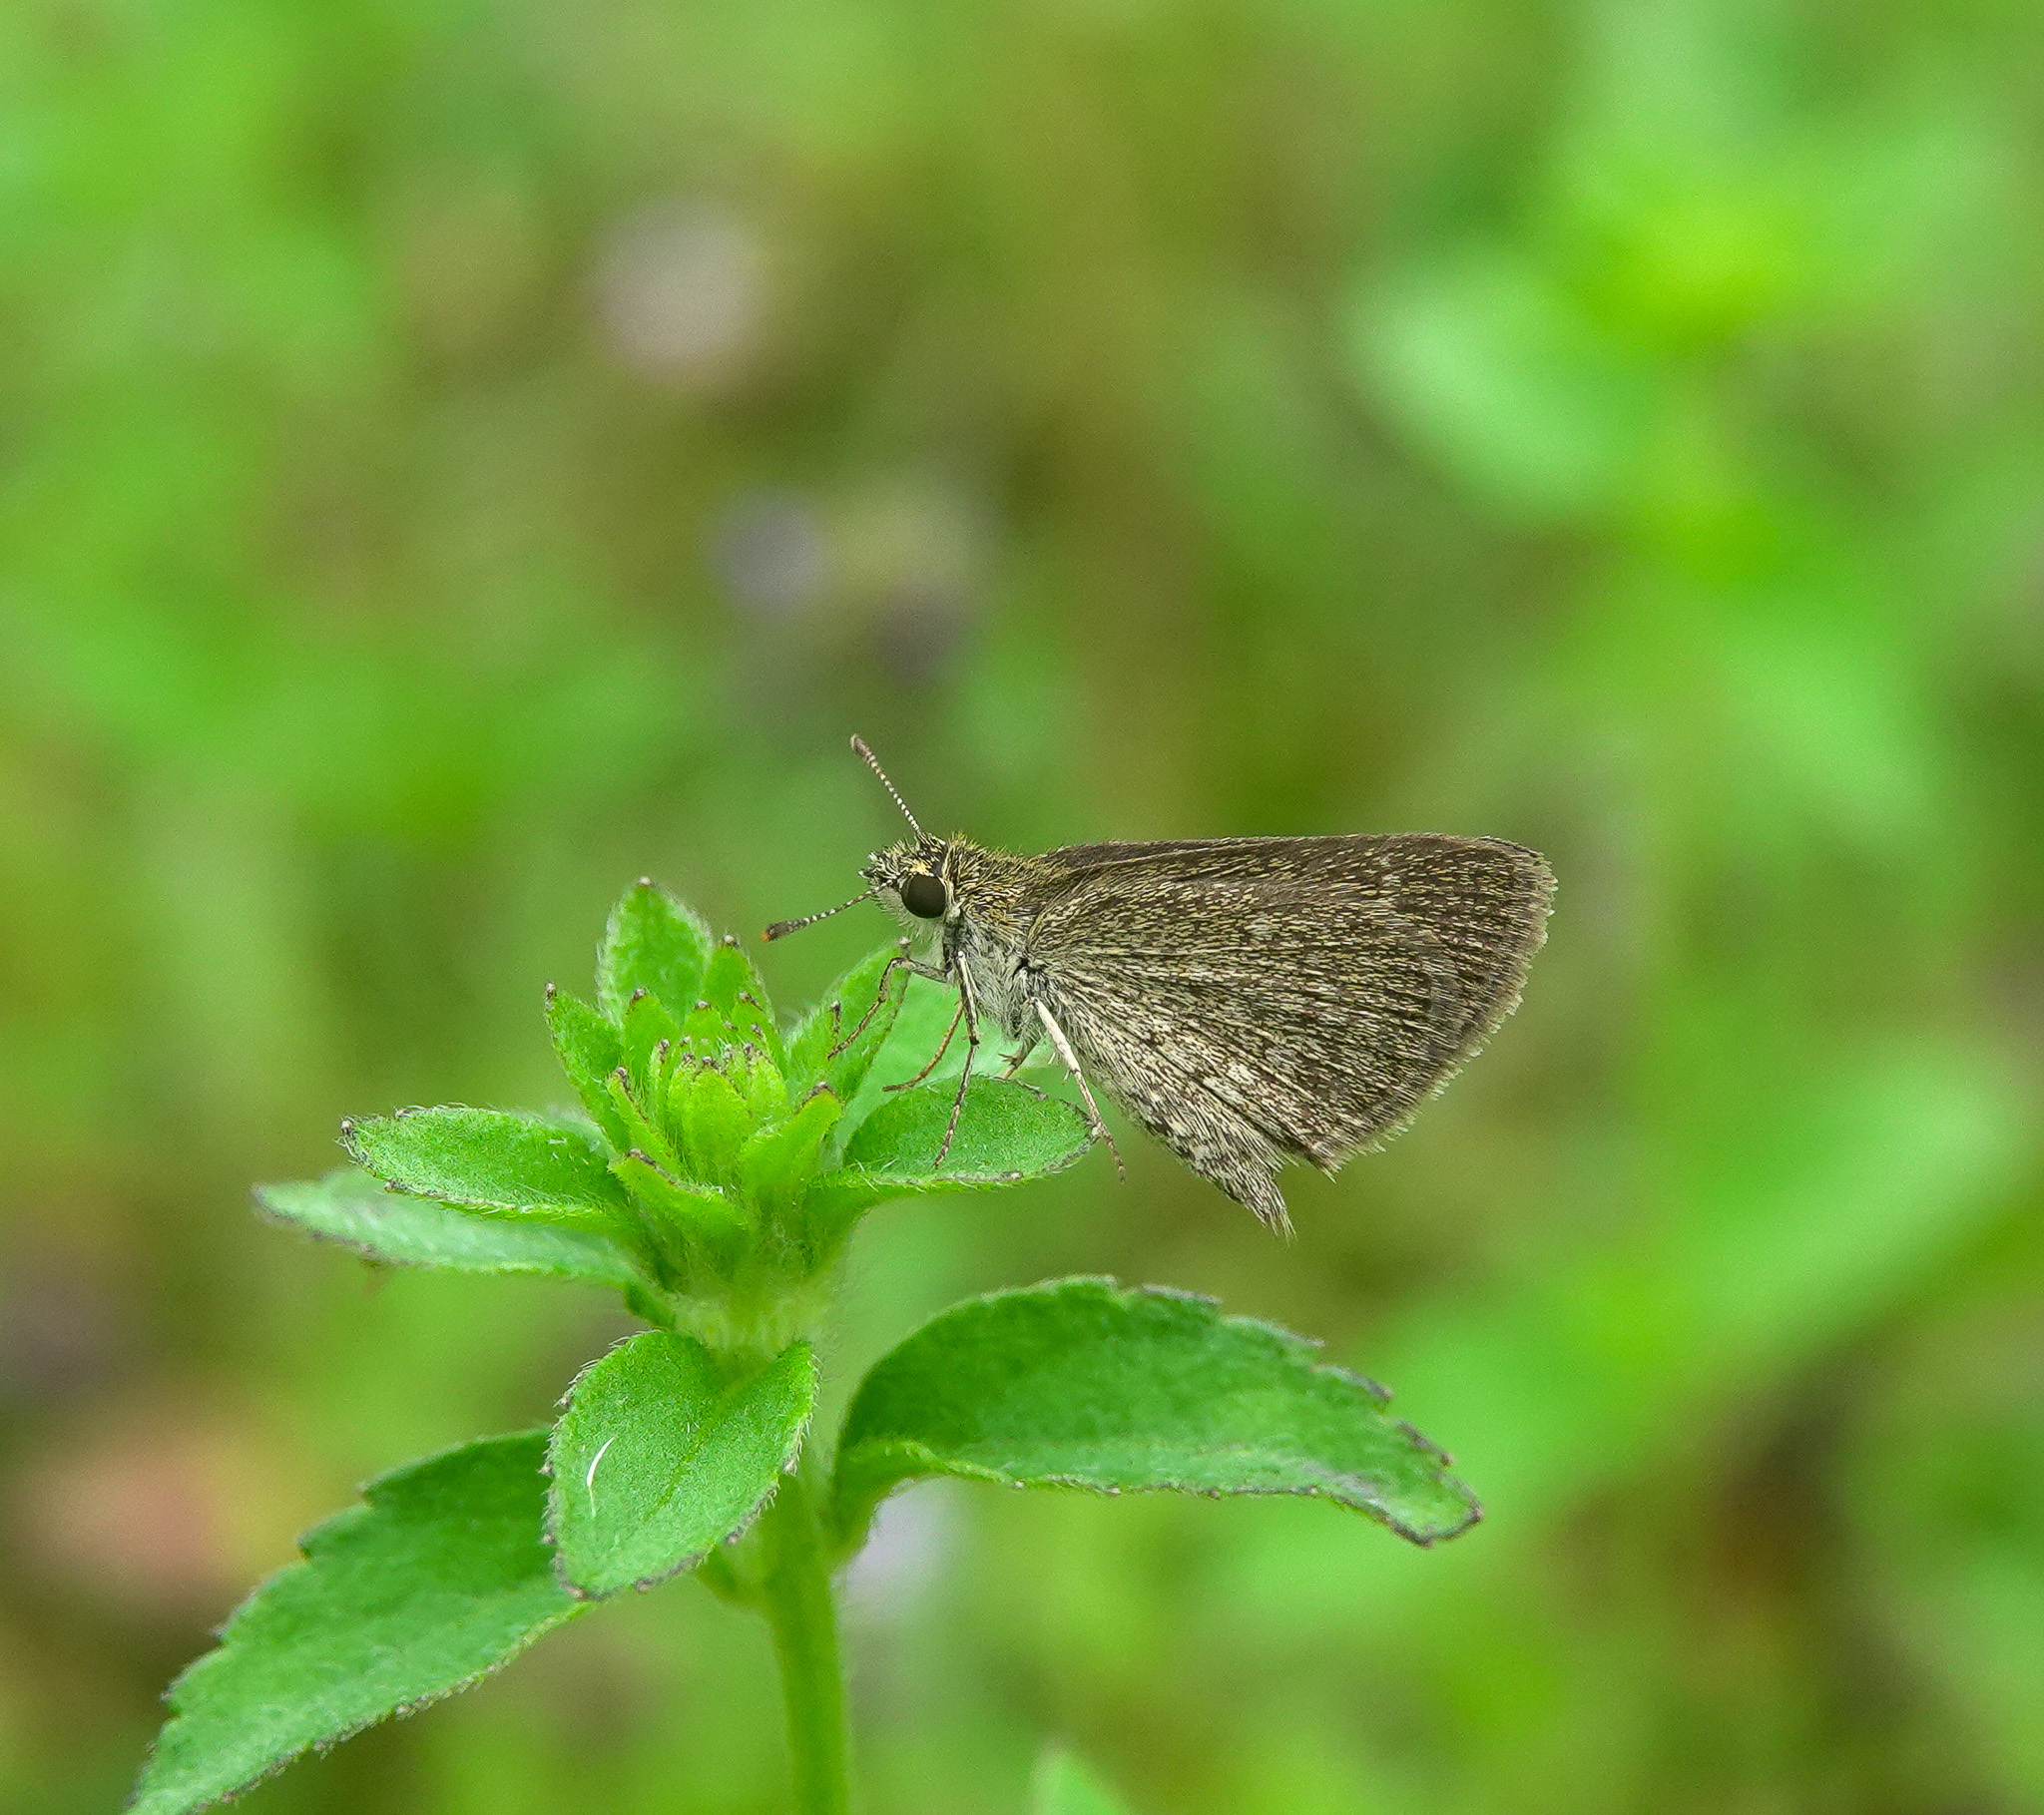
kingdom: Animalia
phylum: Arthropoda
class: Insecta
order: Lepidoptera
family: Hesperiidae
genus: Aeromachus
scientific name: Aeromachus pygmaeus
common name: Pygmy scrub hopper
